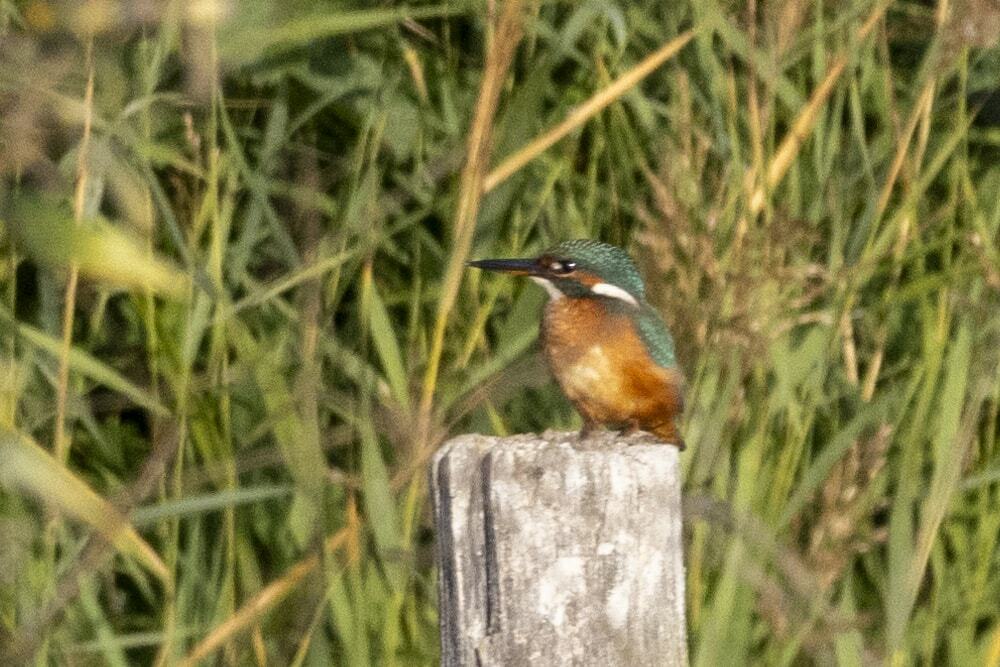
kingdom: Animalia
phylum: Chordata
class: Aves
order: Coraciiformes
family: Alcedinidae
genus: Alcedo
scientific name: Alcedo atthis
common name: Common kingfisher
